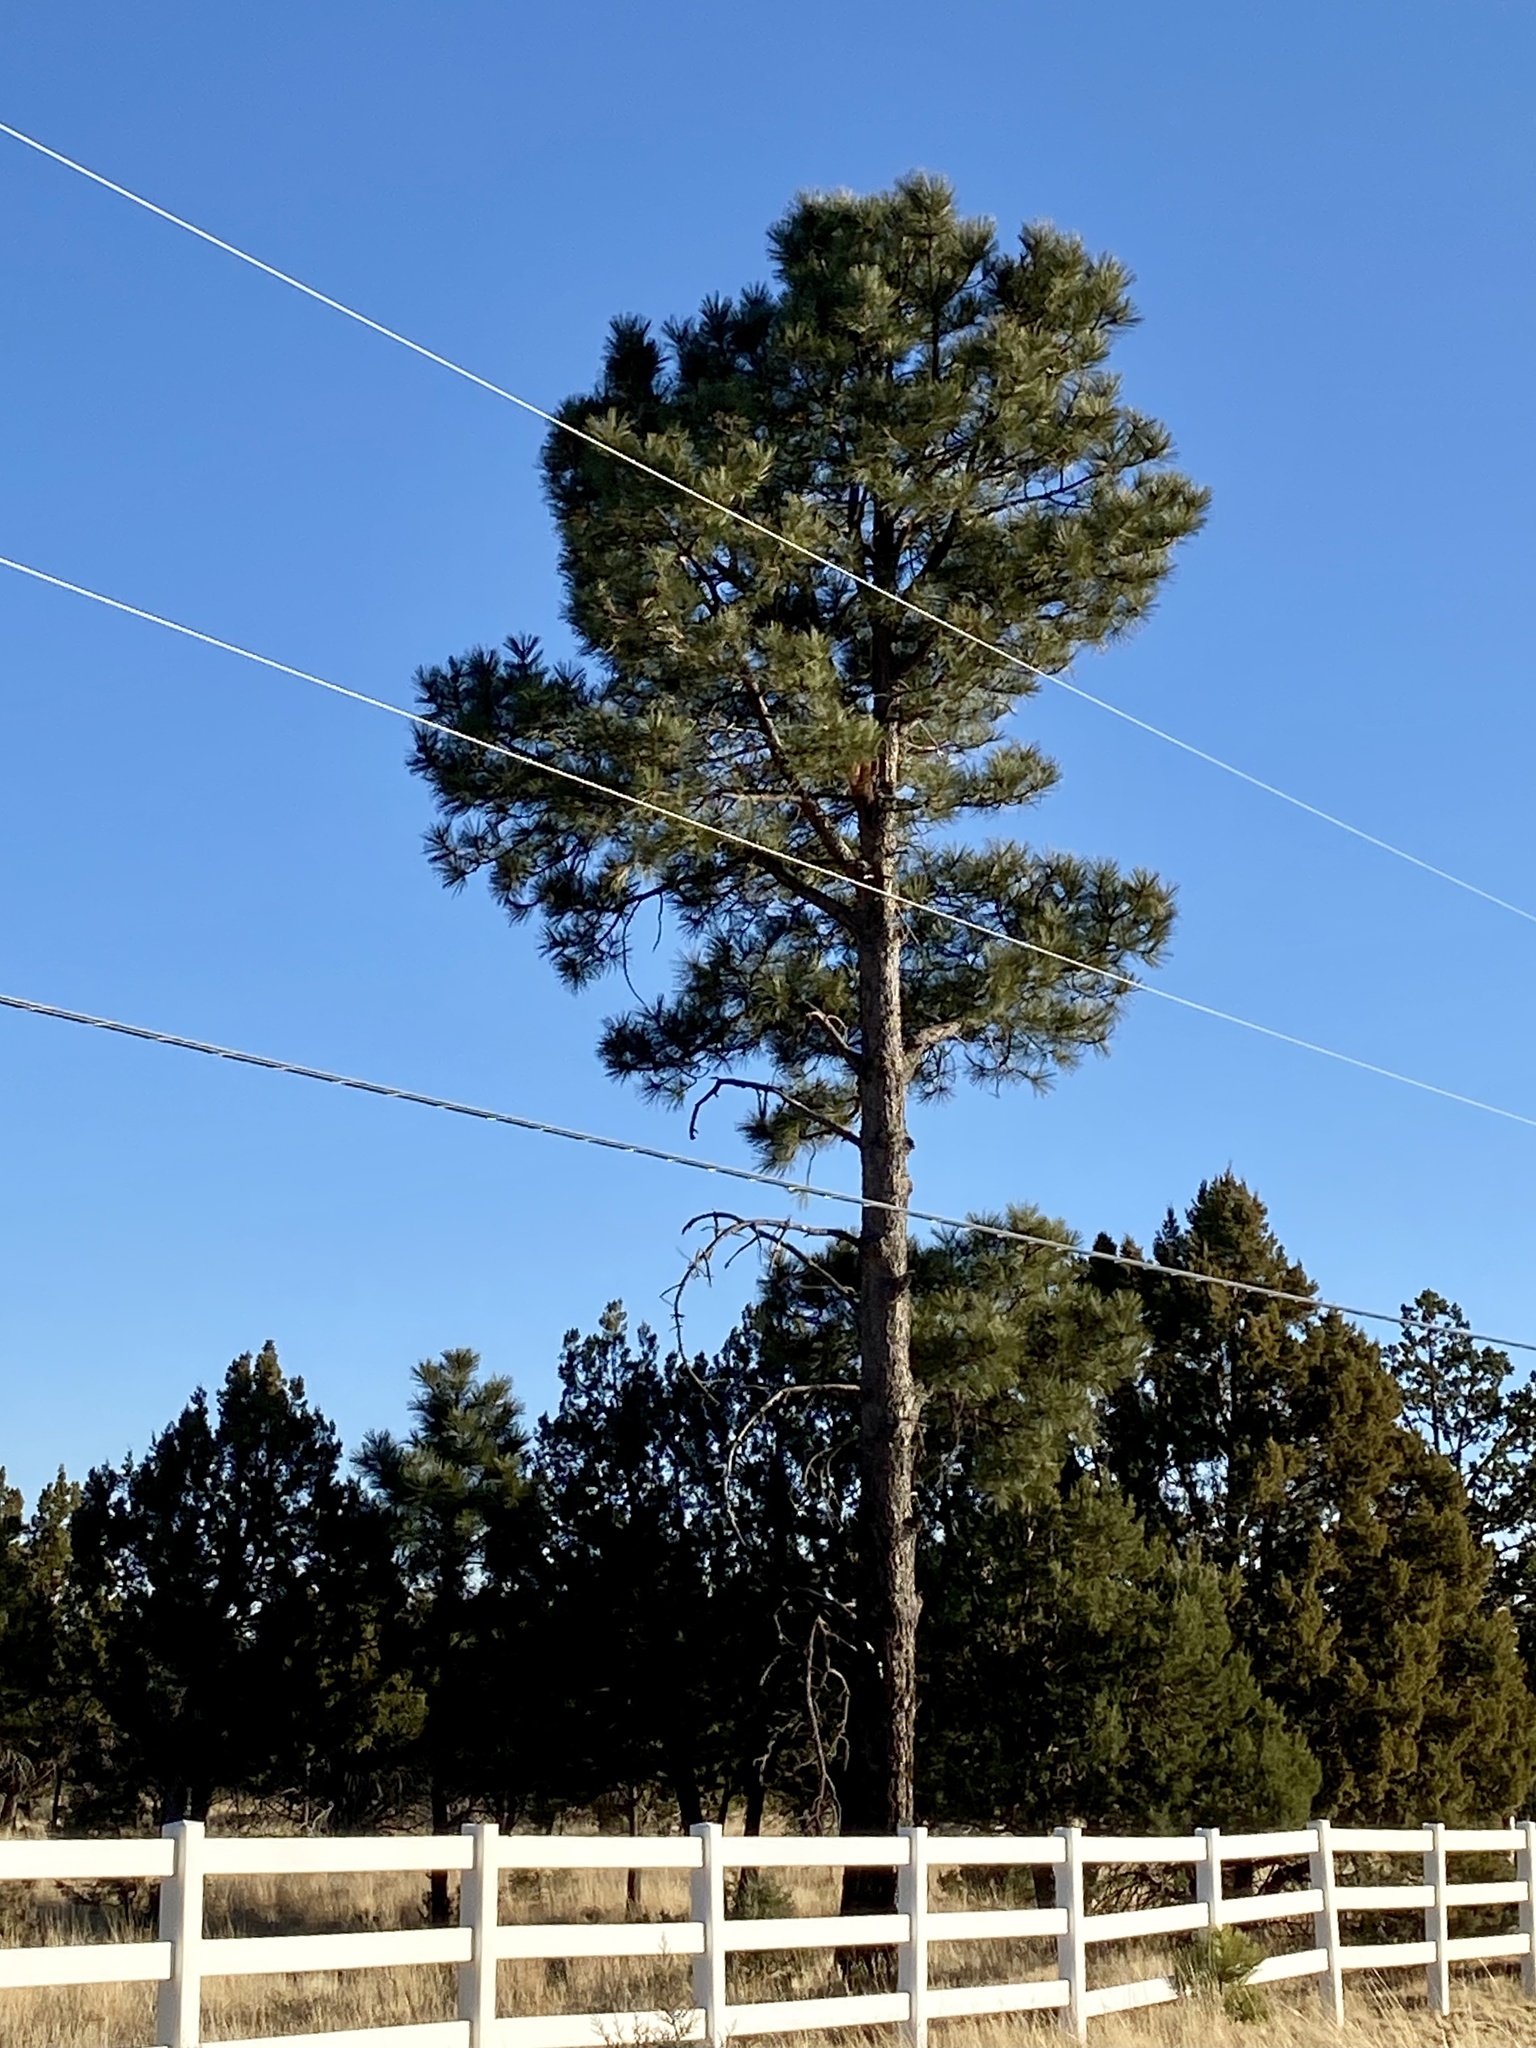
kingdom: Plantae
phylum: Tracheophyta
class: Pinopsida
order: Pinales
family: Pinaceae
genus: Pinus
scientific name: Pinus ponderosa
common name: Western yellow-pine
